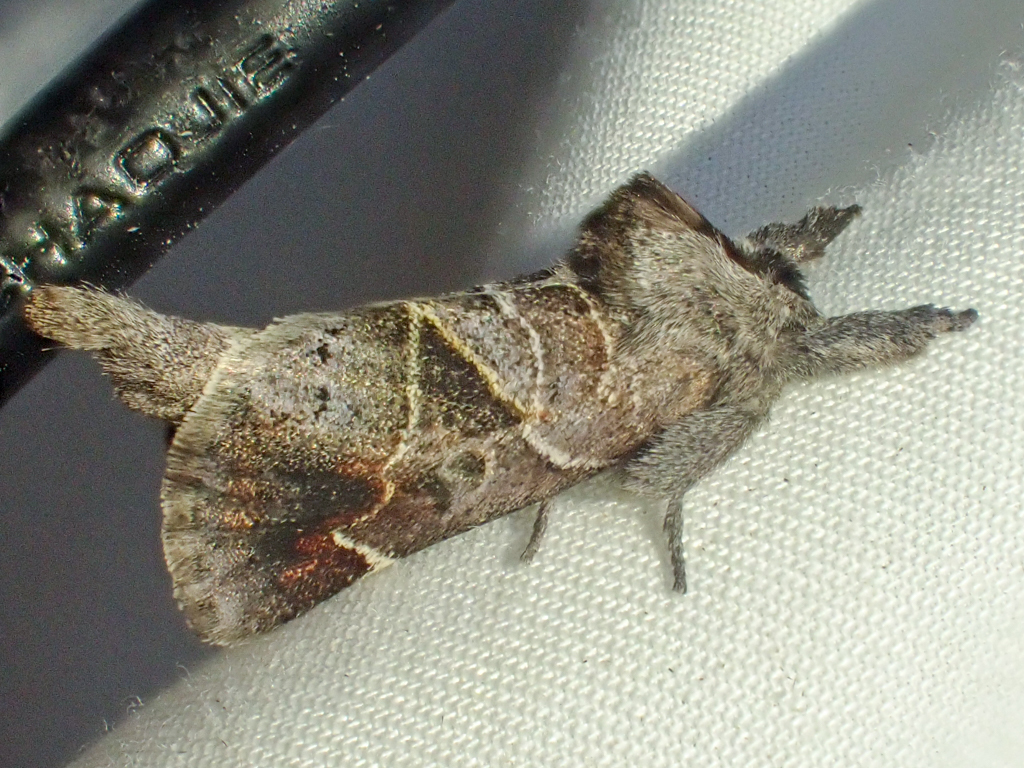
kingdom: Animalia
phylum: Arthropoda
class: Insecta
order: Lepidoptera
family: Notodontidae
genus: Clostera
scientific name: Clostera apicalis
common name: Apical prominent
